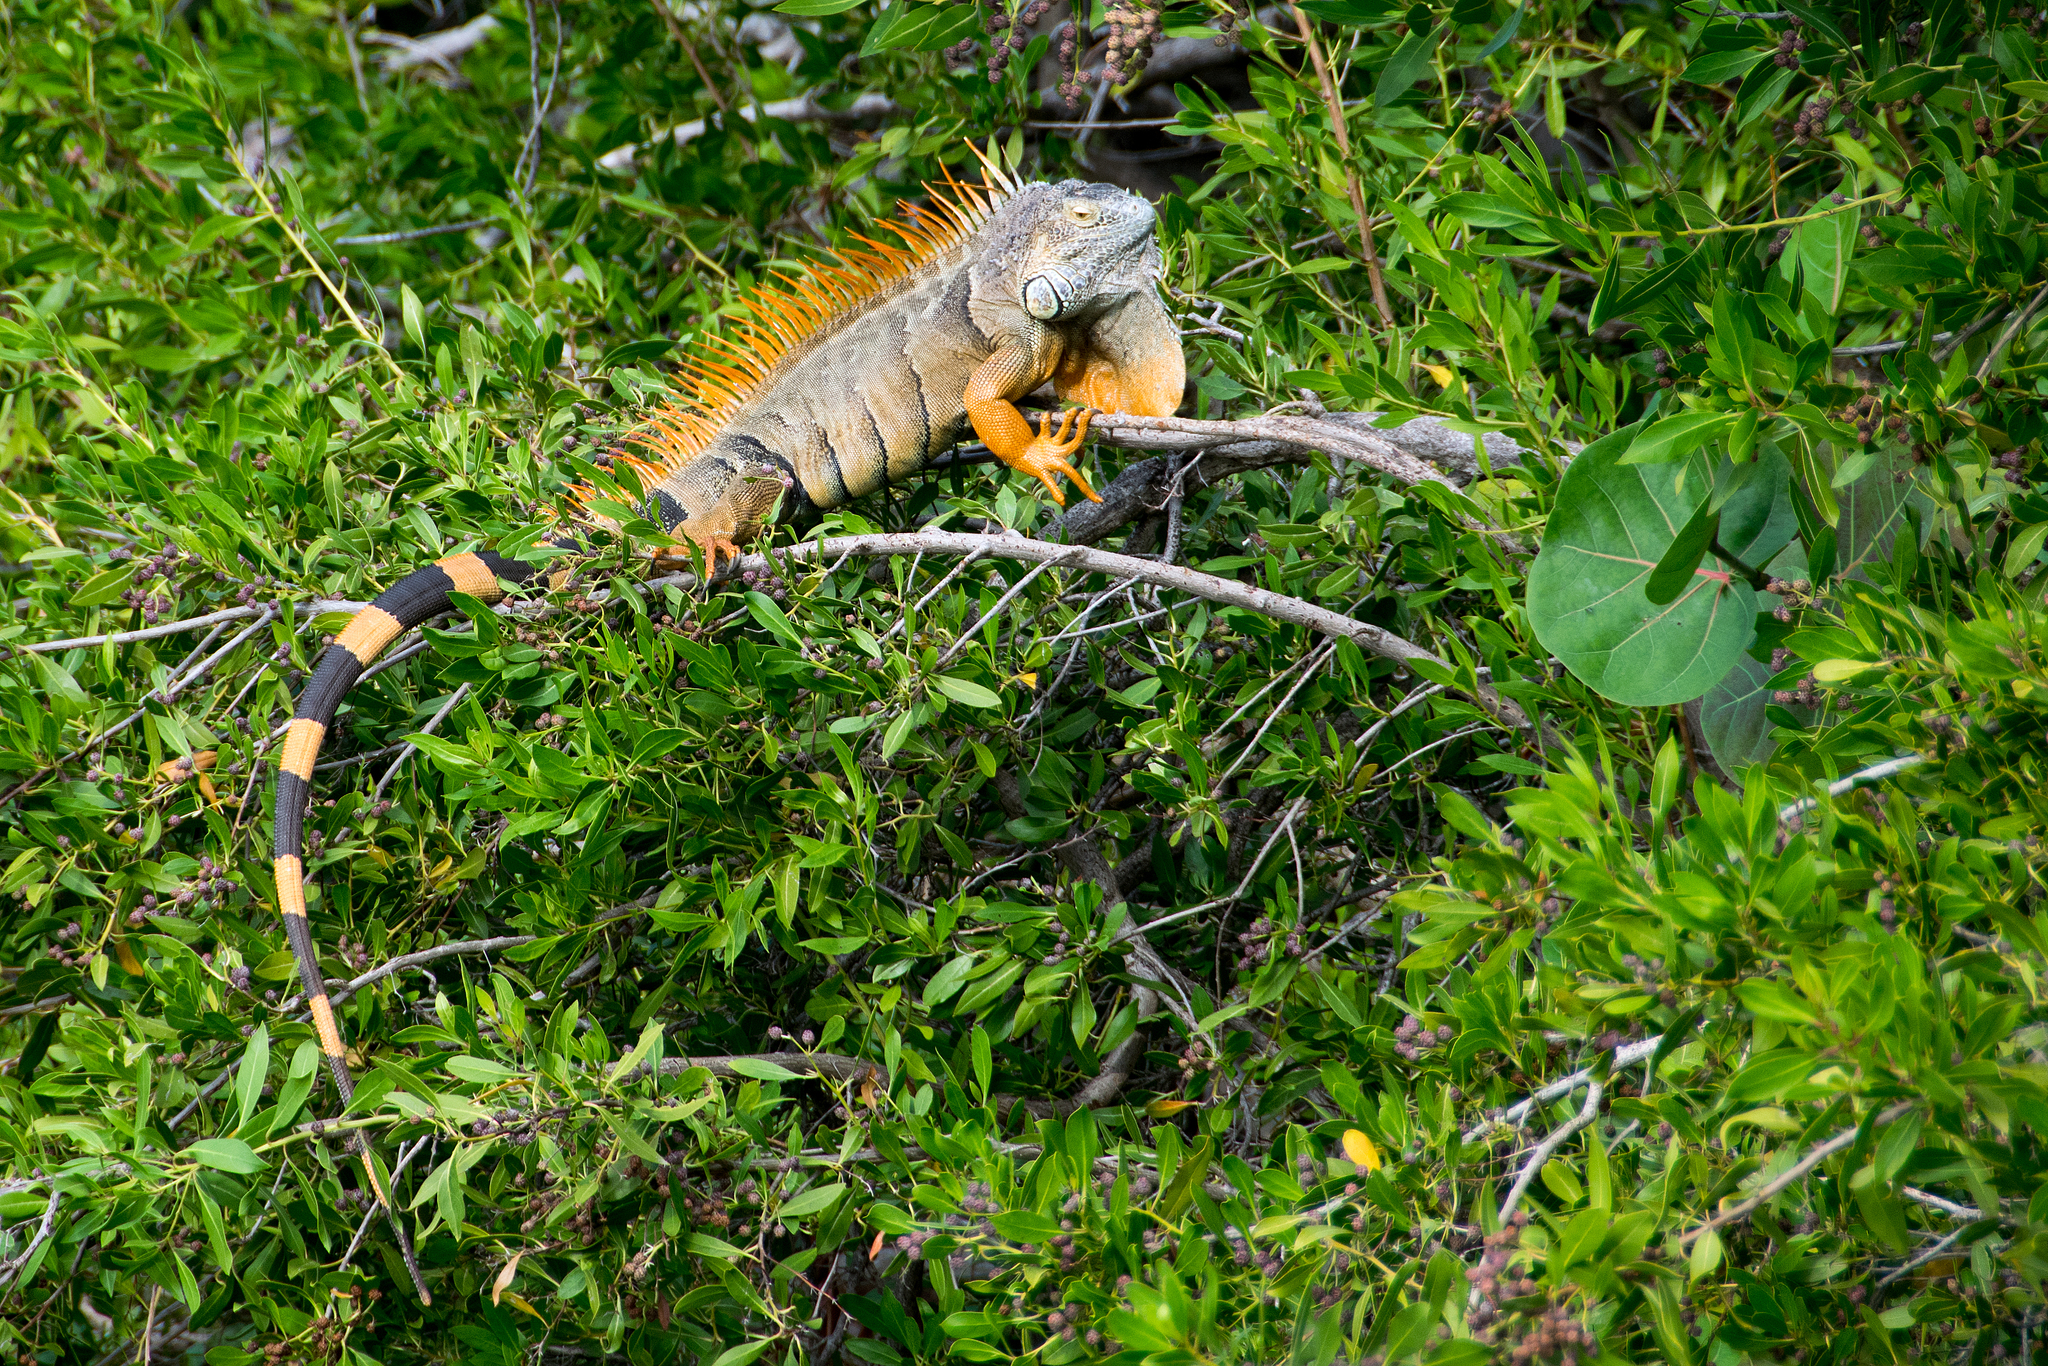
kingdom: Animalia
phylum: Chordata
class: Squamata
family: Iguanidae
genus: Iguana
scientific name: Iguana iguana
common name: Green iguana
